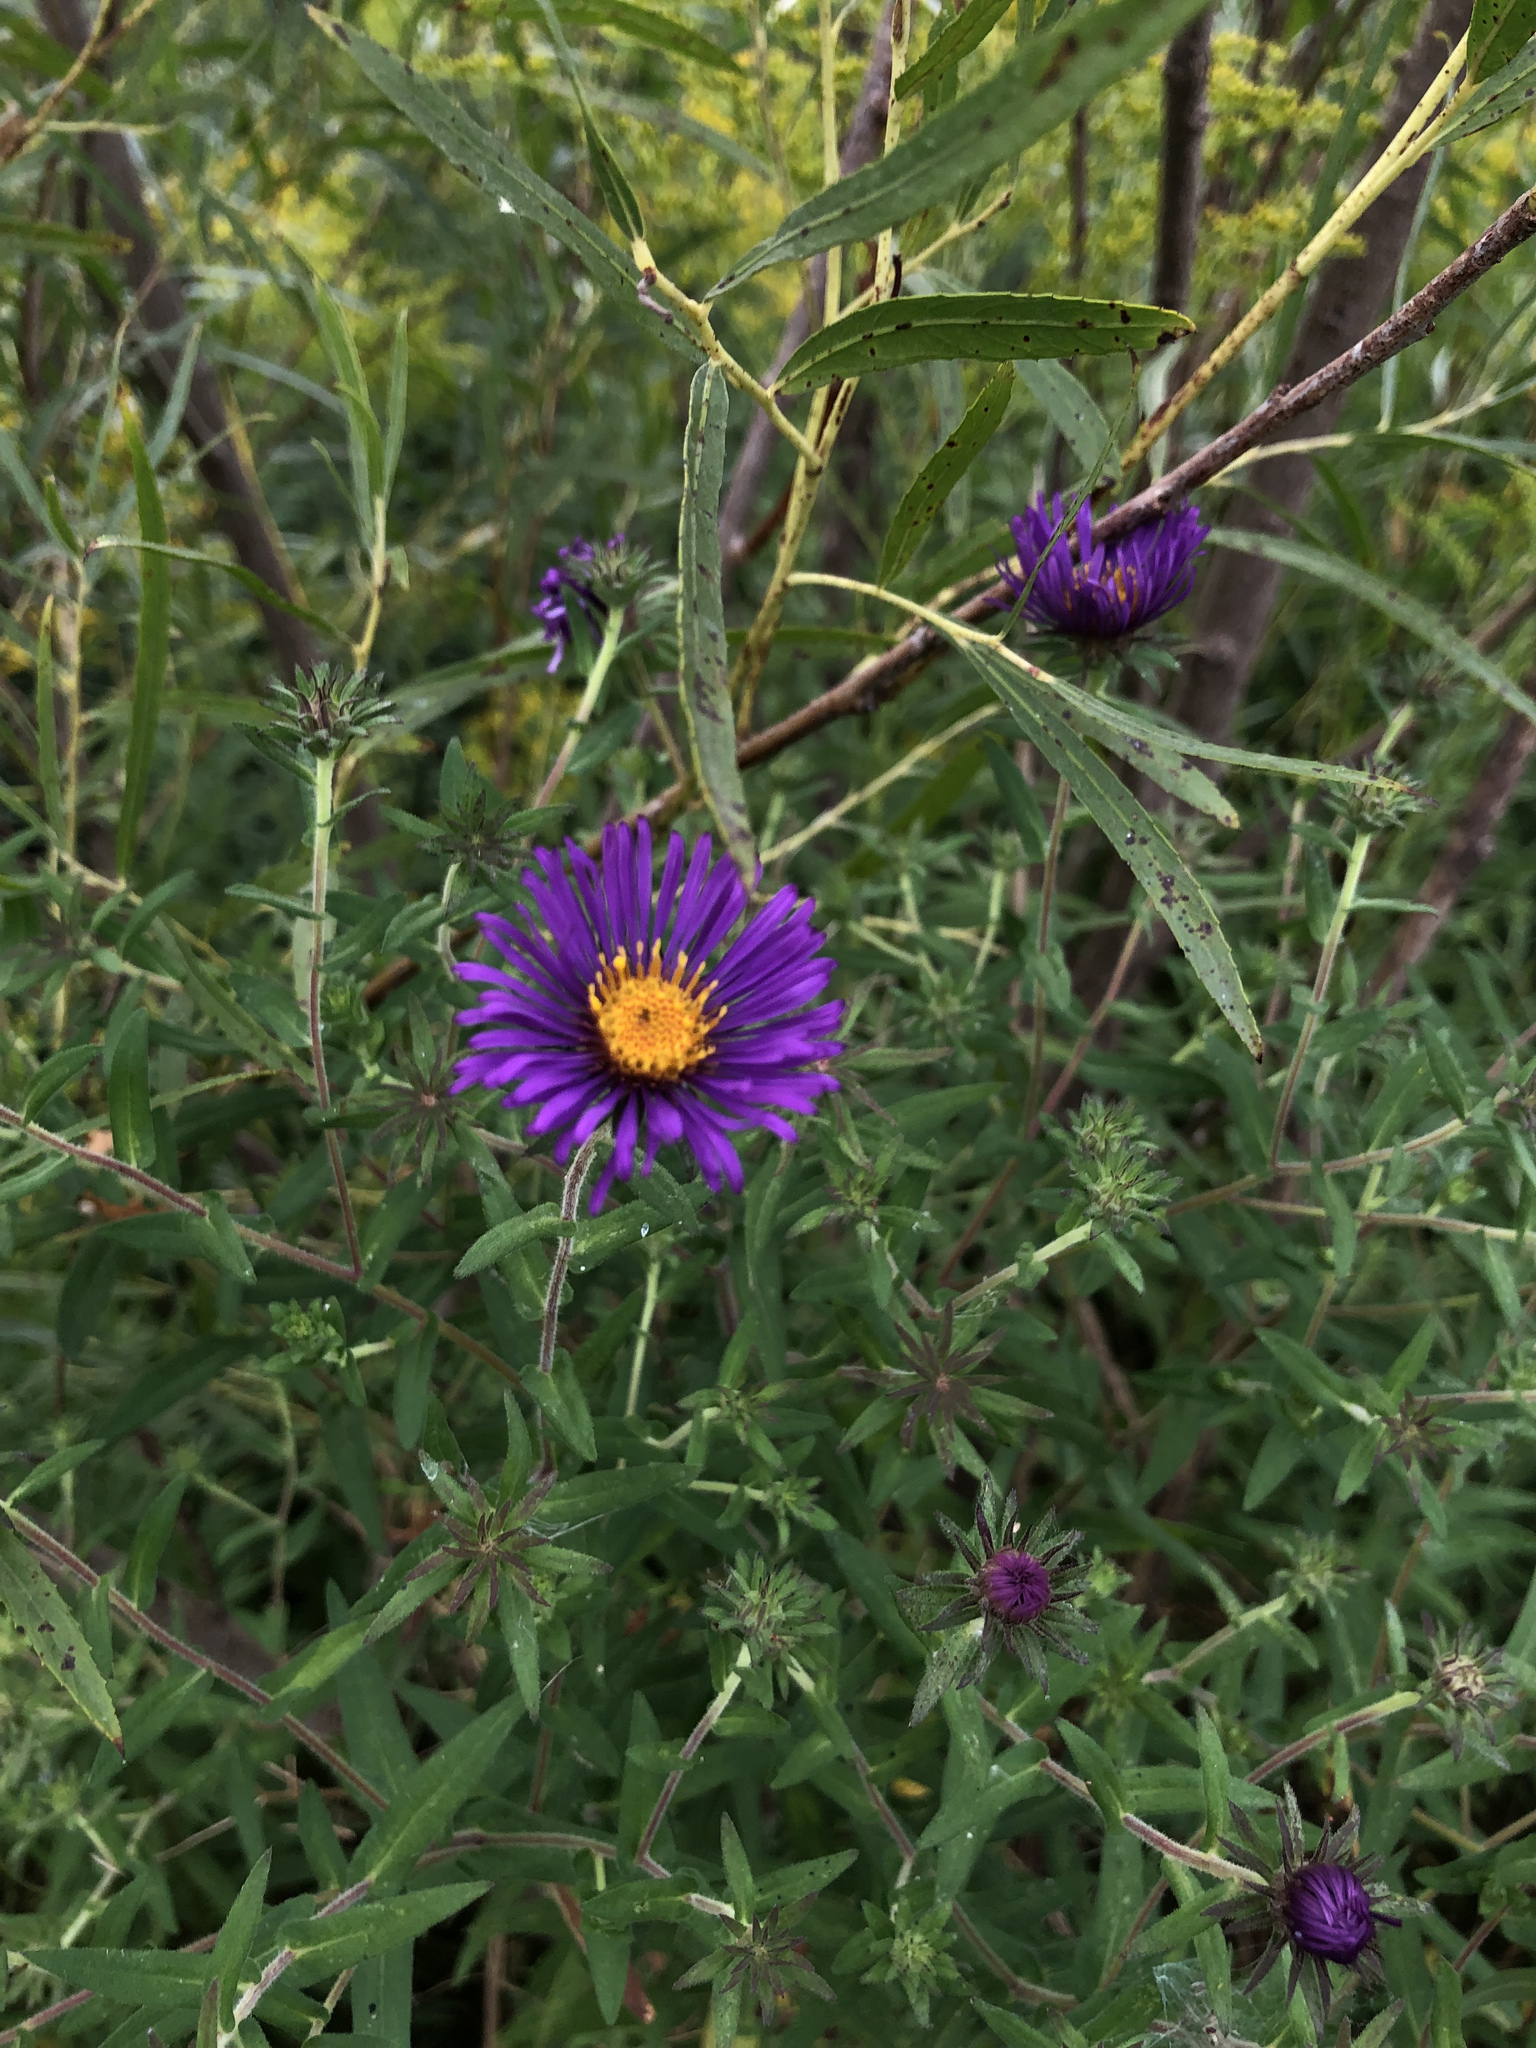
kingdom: Plantae
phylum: Tracheophyta
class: Magnoliopsida
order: Asterales
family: Asteraceae
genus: Symphyotrichum
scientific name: Symphyotrichum novae-angliae
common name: Michaelmas daisy
